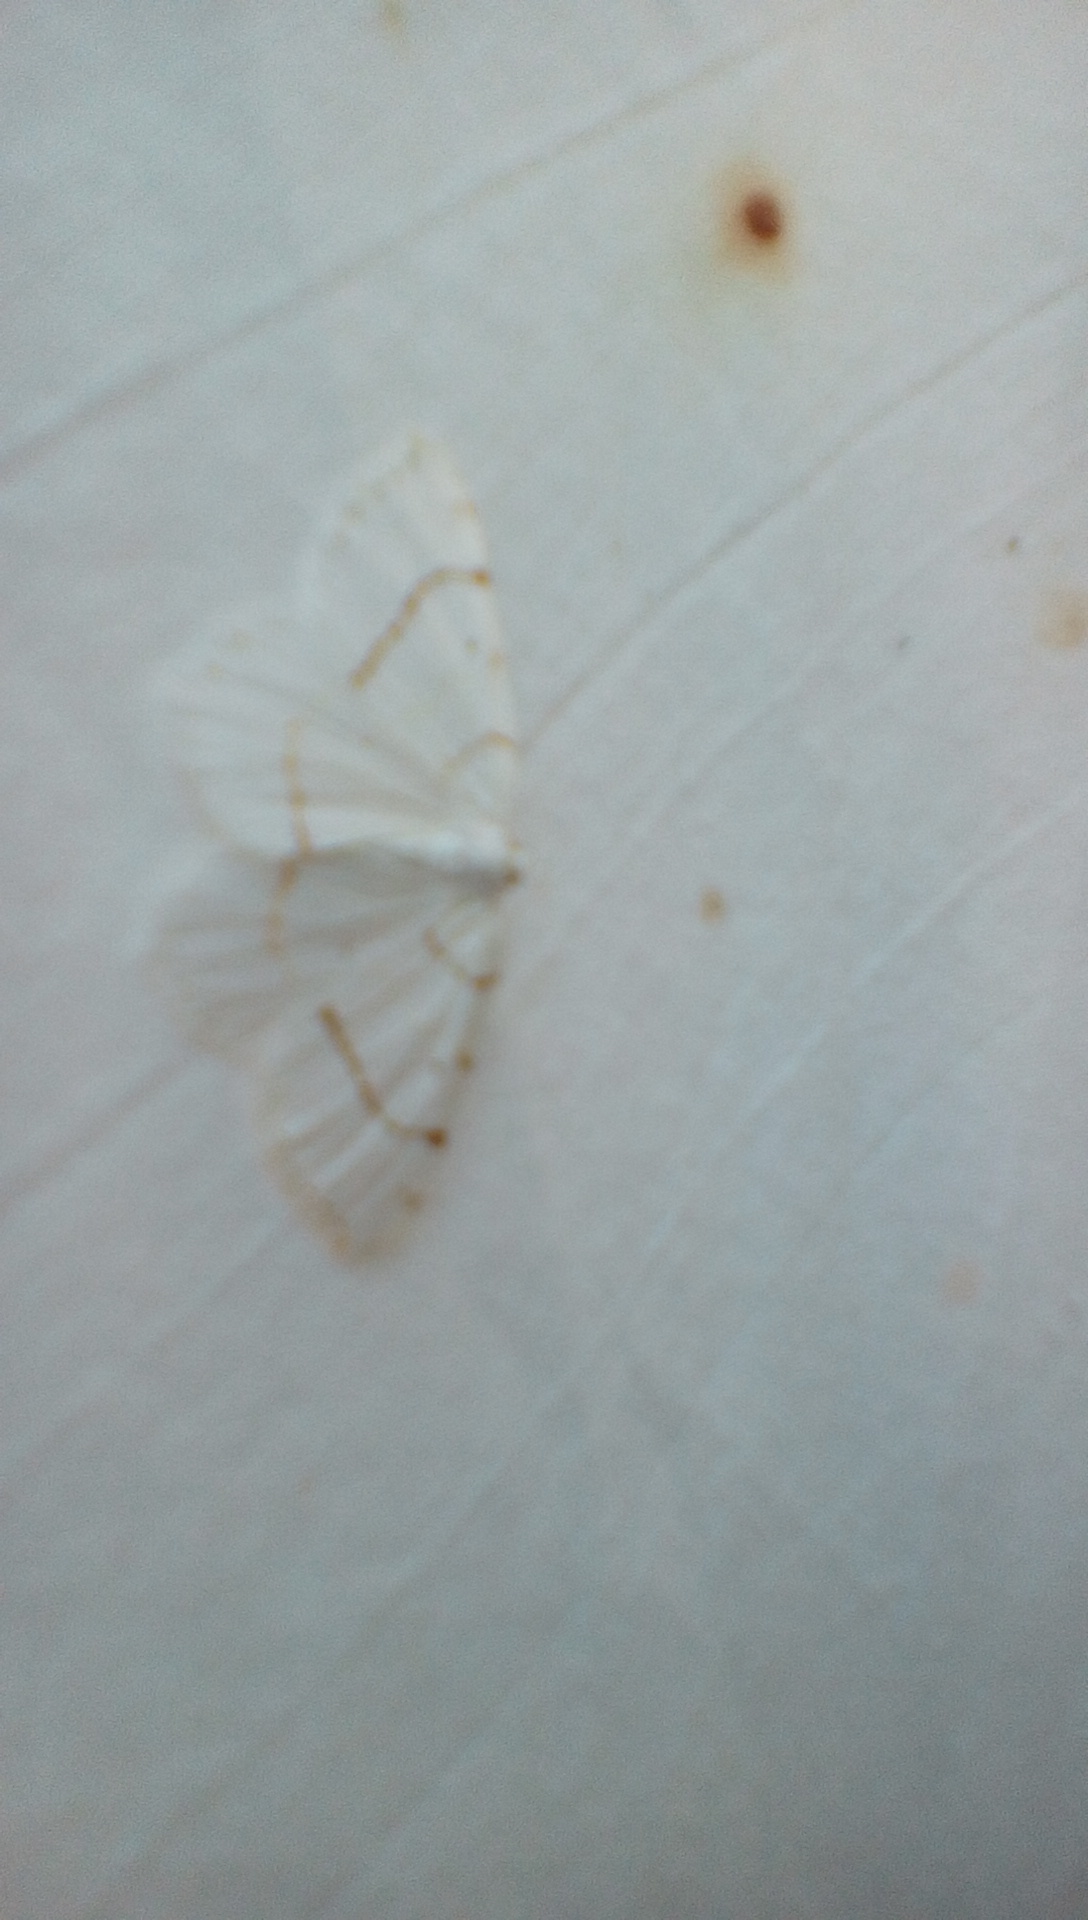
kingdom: Animalia
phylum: Arthropoda
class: Insecta
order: Lepidoptera
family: Geometridae
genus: Macaria
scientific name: Macaria pustularia
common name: Lesser maple spanworm moth
